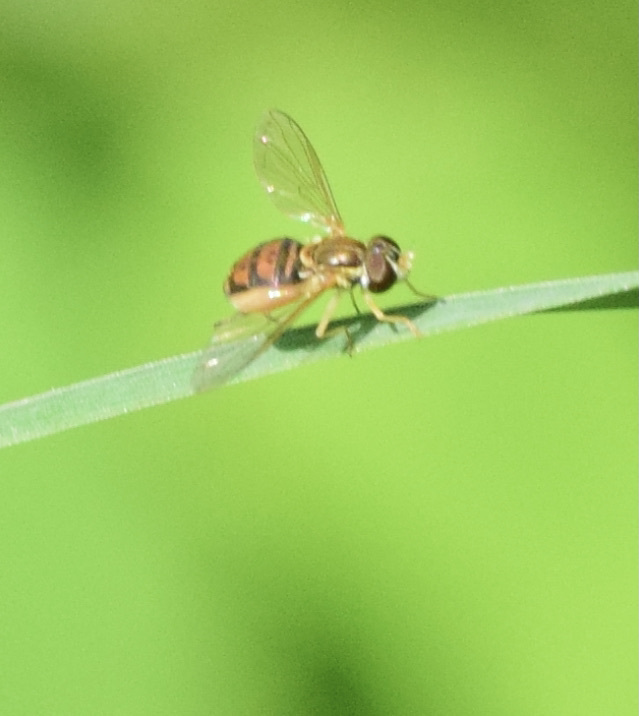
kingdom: Animalia
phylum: Arthropoda
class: Insecta
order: Diptera
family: Syrphidae
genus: Toxomerus
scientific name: Toxomerus marginatus
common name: Syrphid fly
